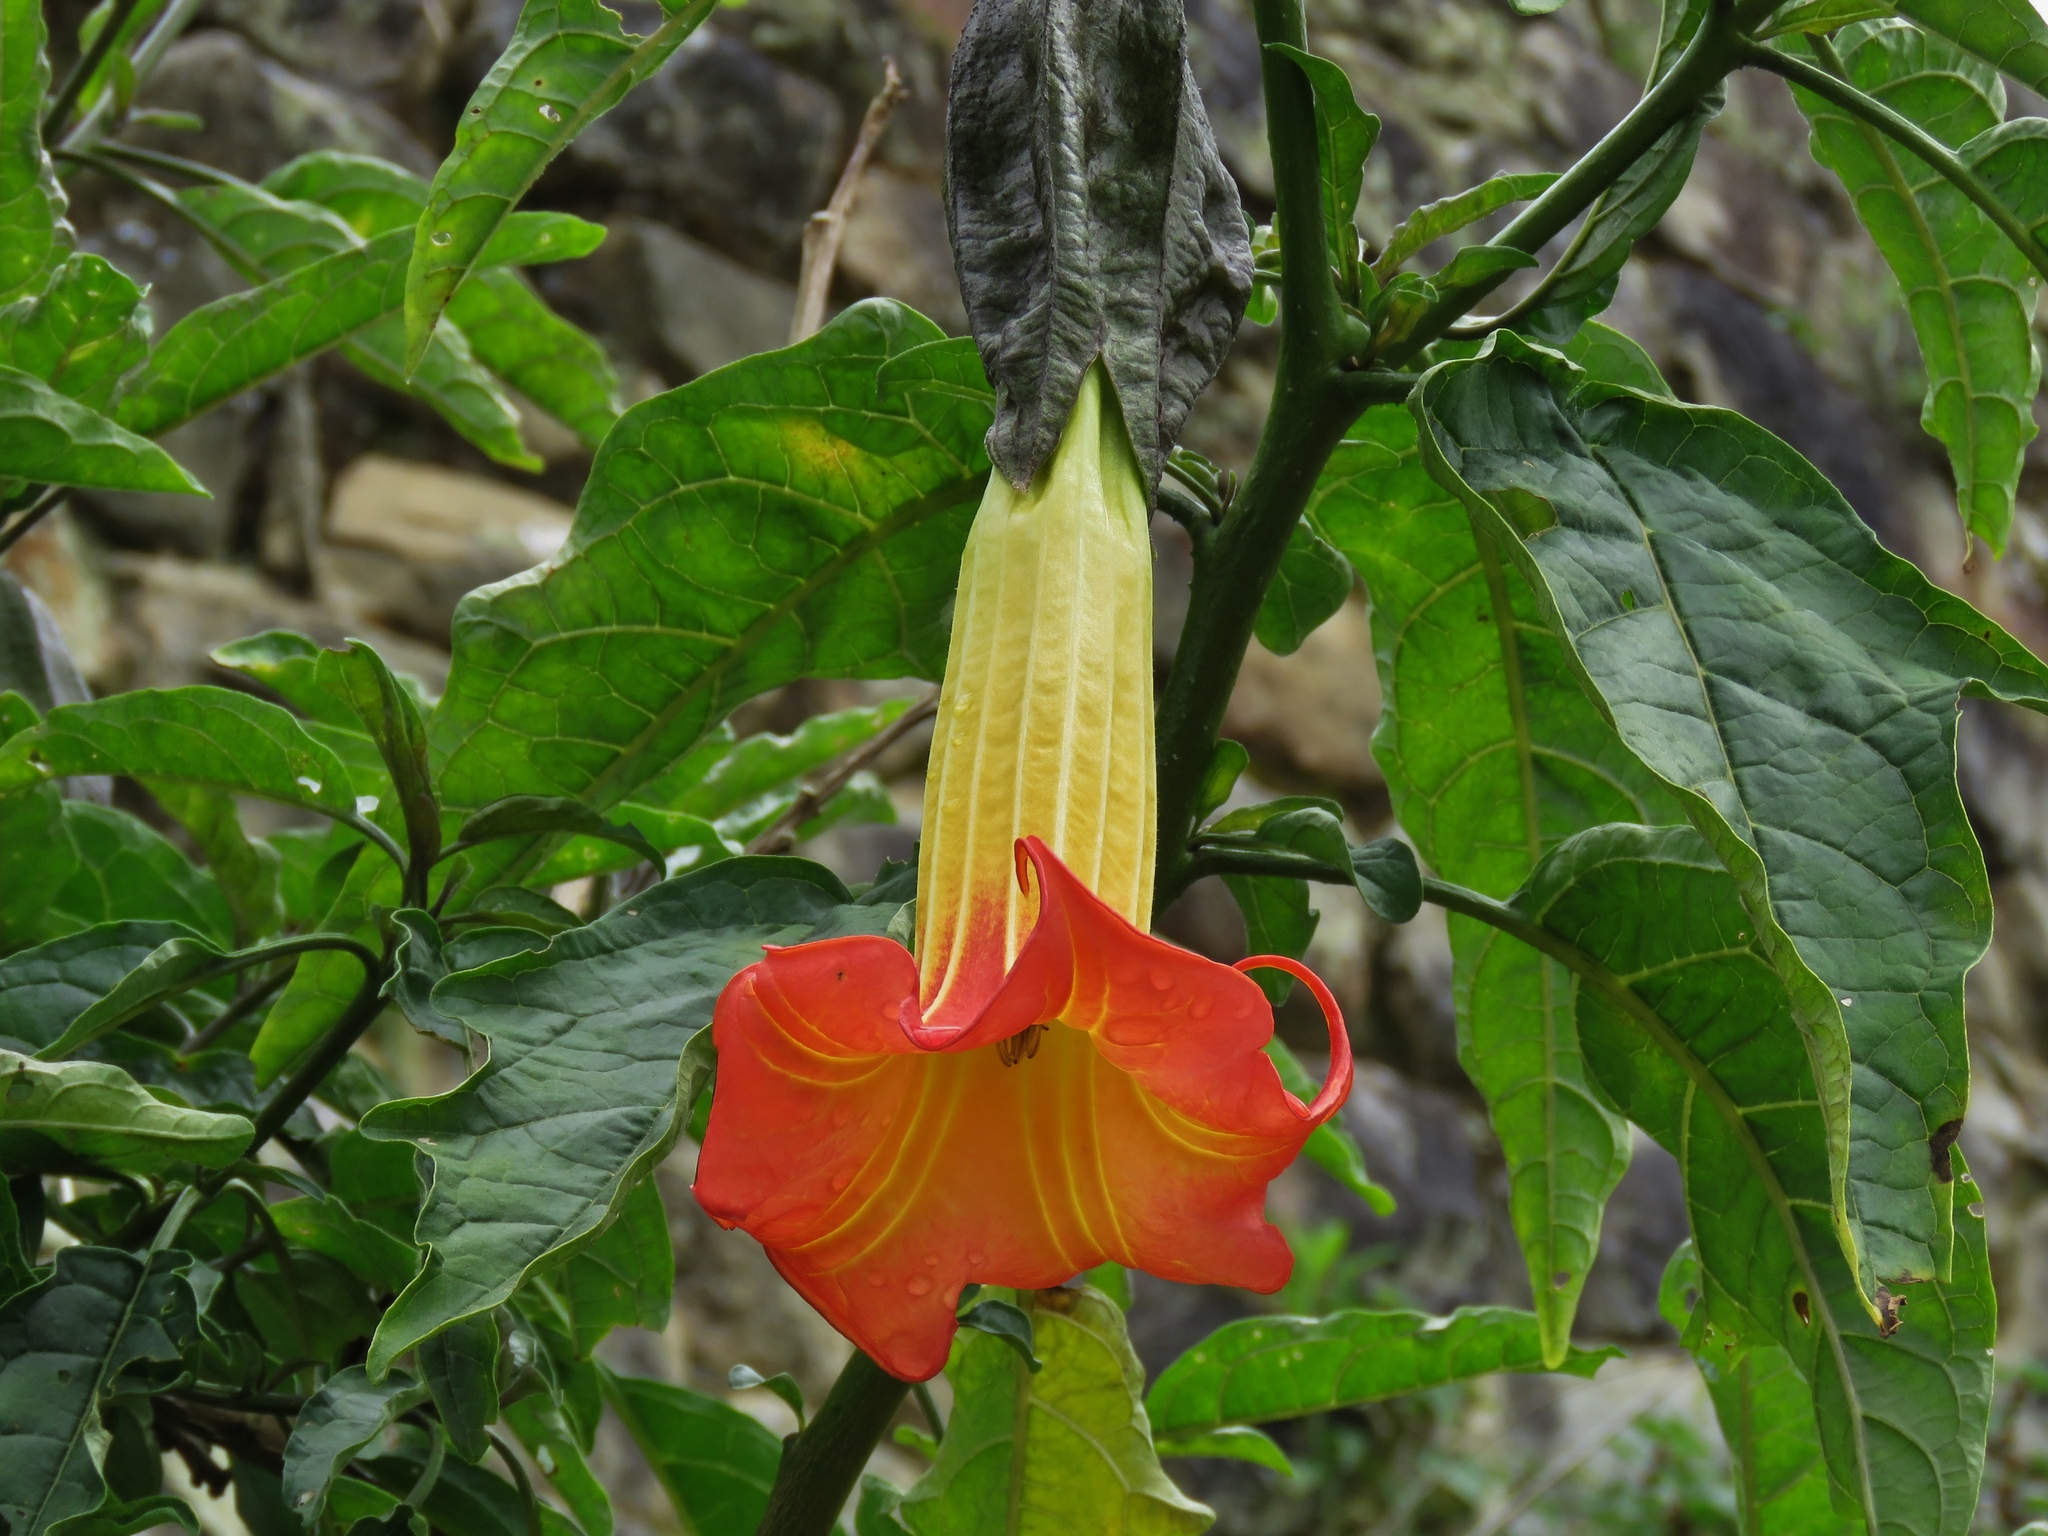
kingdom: Plantae
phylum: Tracheophyta
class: Magnoliopsida
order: Solanales
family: Solanaceae
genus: Brugmansia
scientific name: Brugmansia sanguinea
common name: Red floripontio
